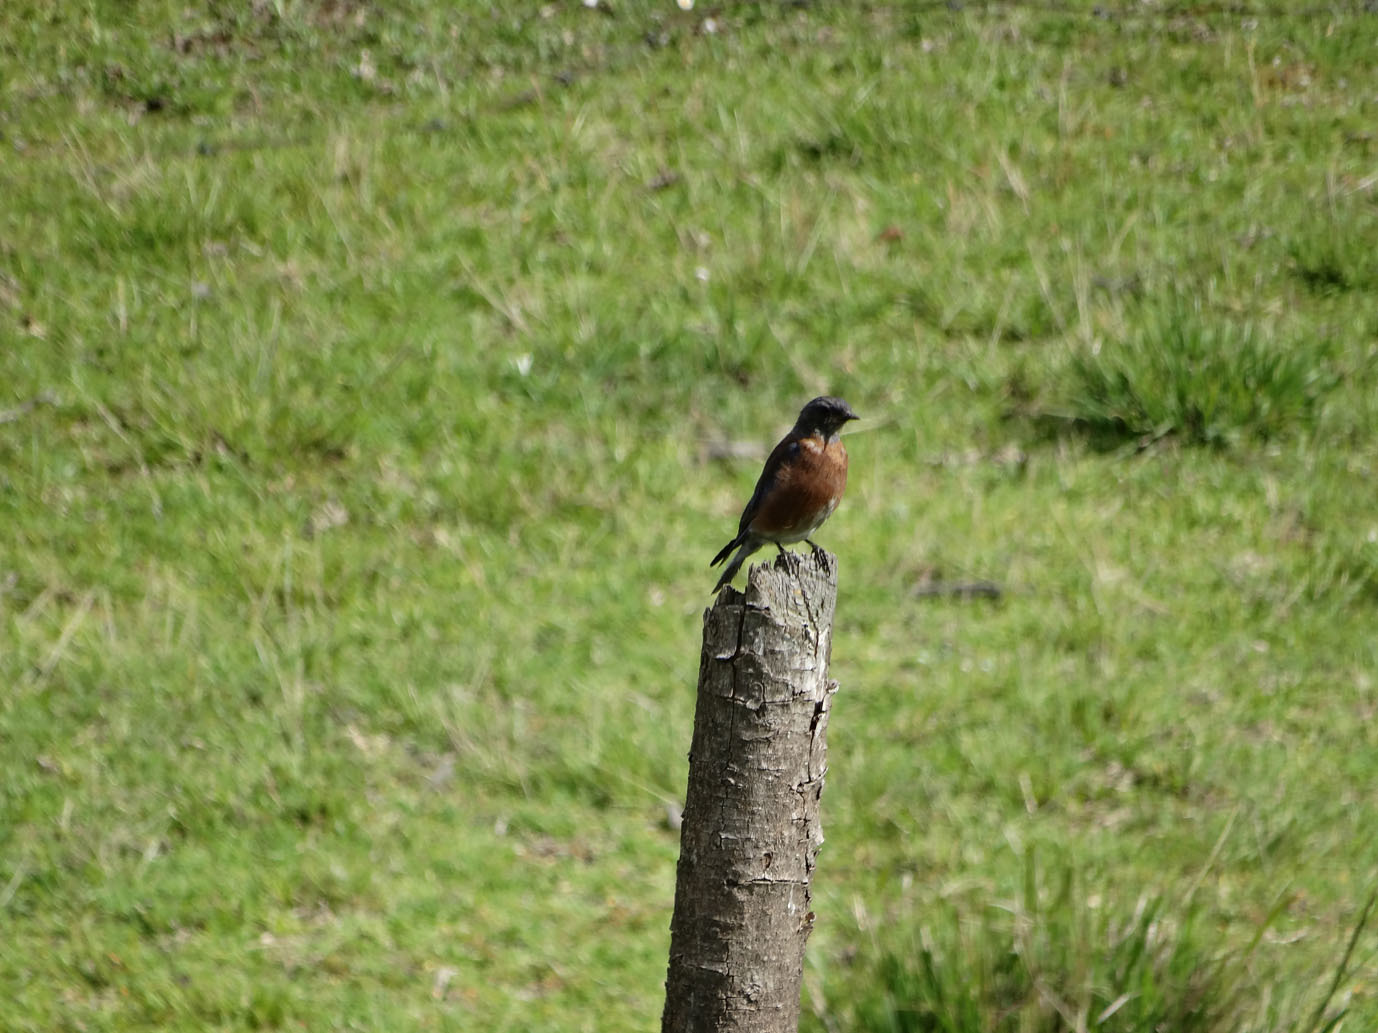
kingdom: Animalia
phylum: Chordata
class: Aves
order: Passeriformes
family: Turdidae
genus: Sialia
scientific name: Sialia sialis
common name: Eastern bluebird
